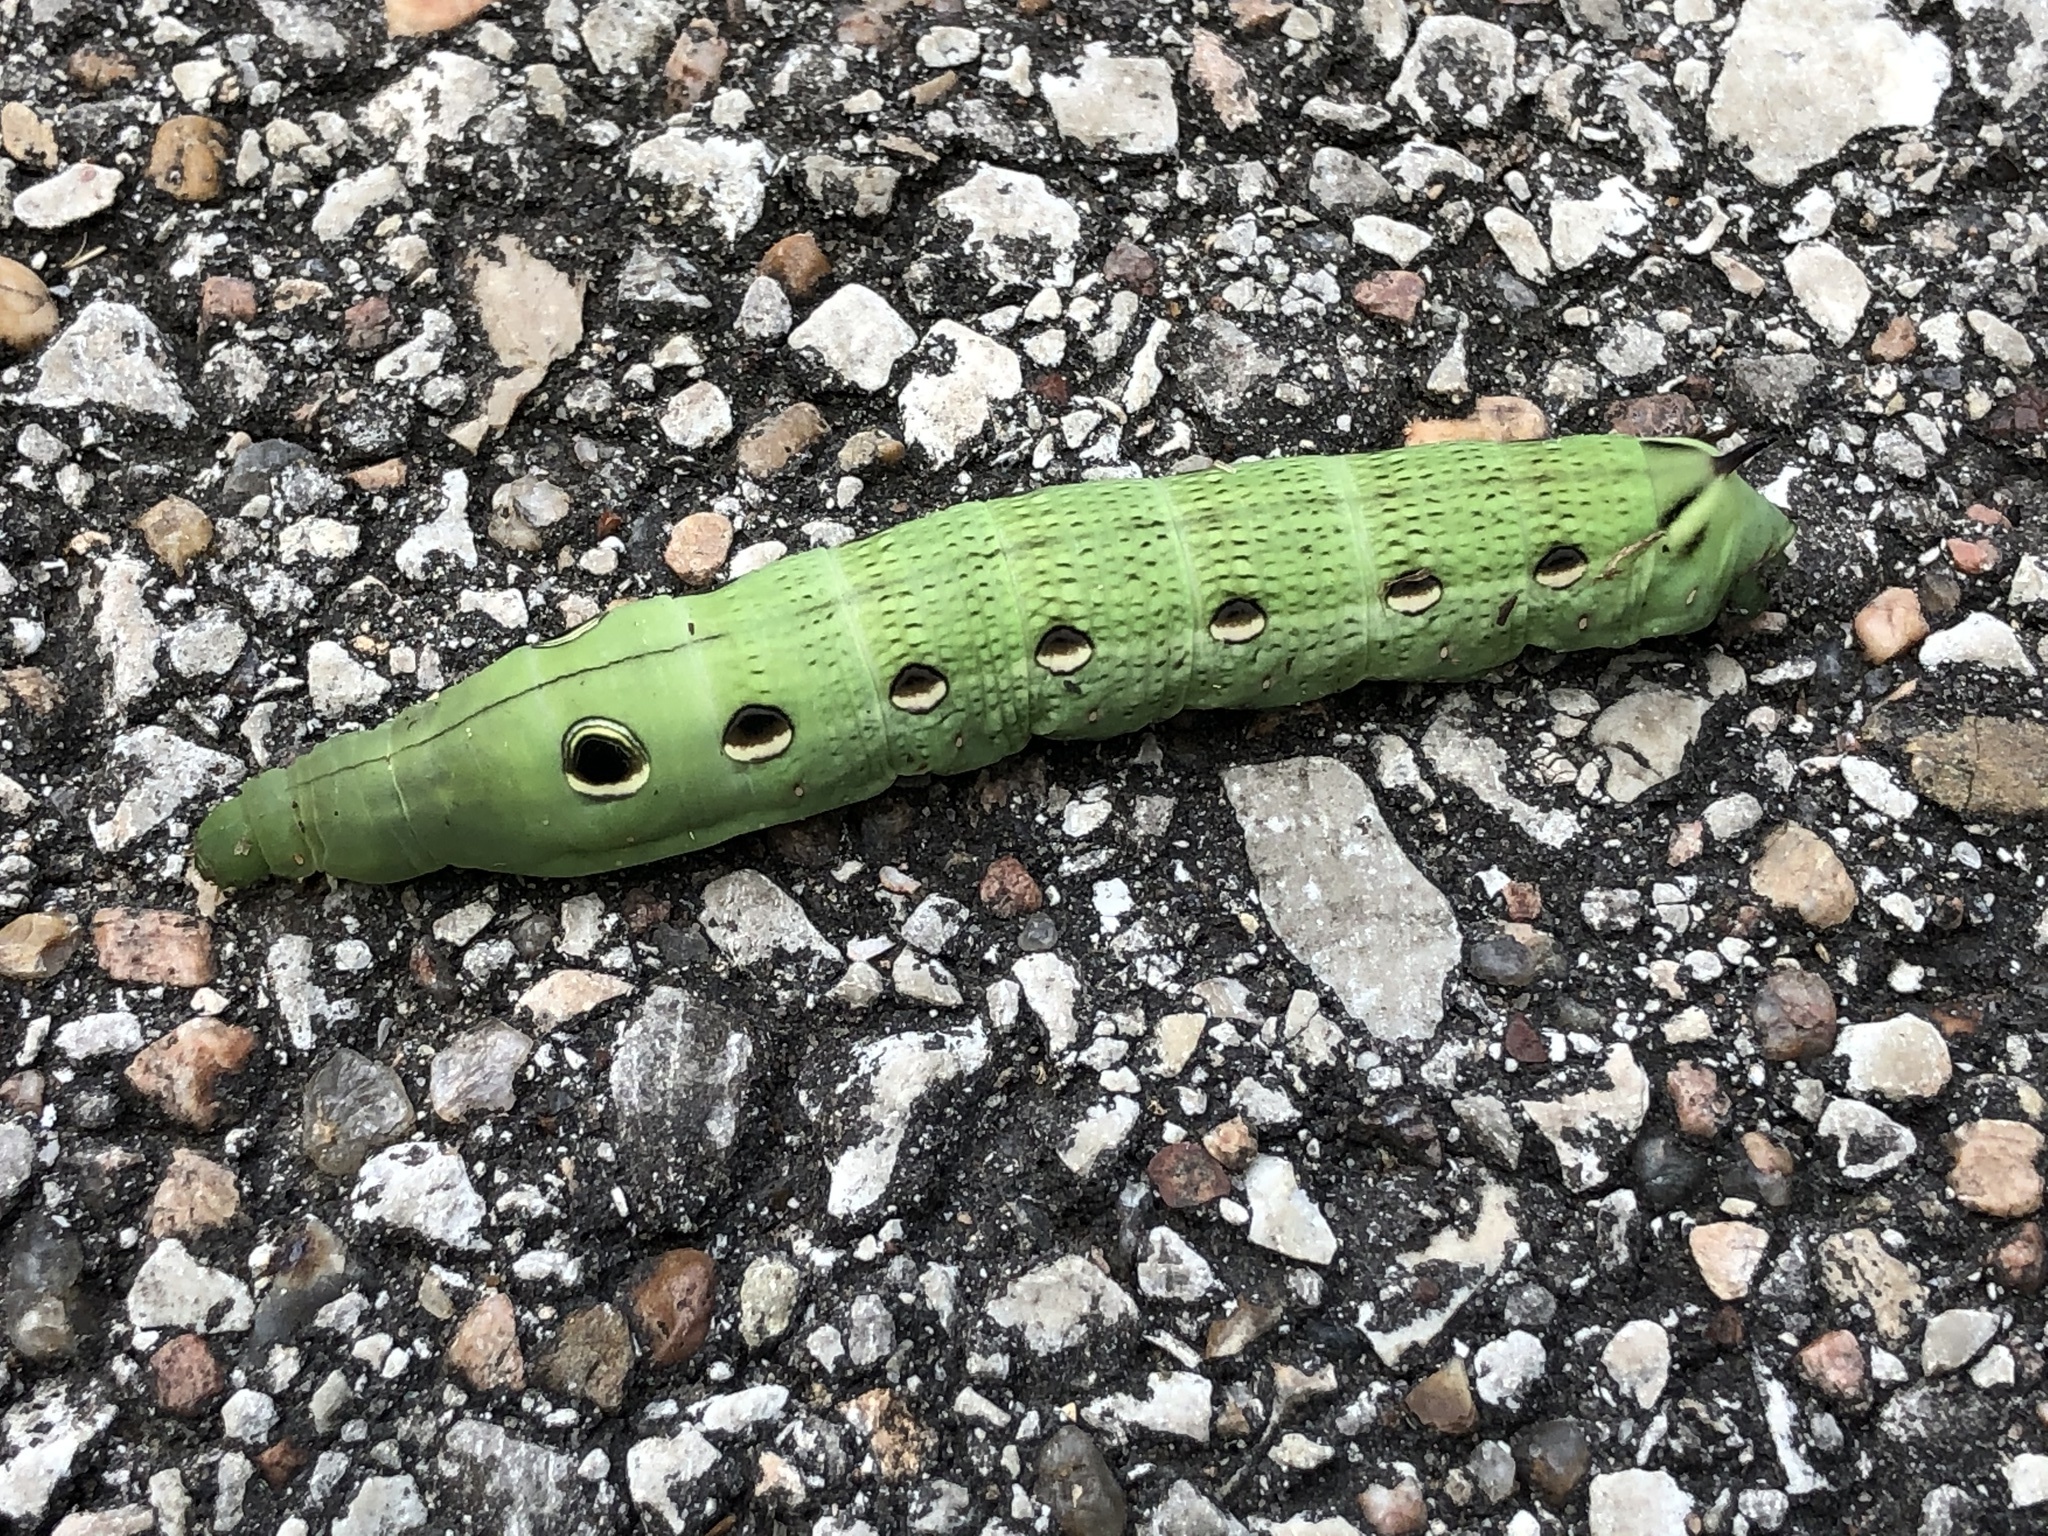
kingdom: Animalia
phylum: Arthropoda
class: Insecta
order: Lepidoptera
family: Sphingidae
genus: Xylophanes
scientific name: Xylophanes tersa
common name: Tersa sphinx
